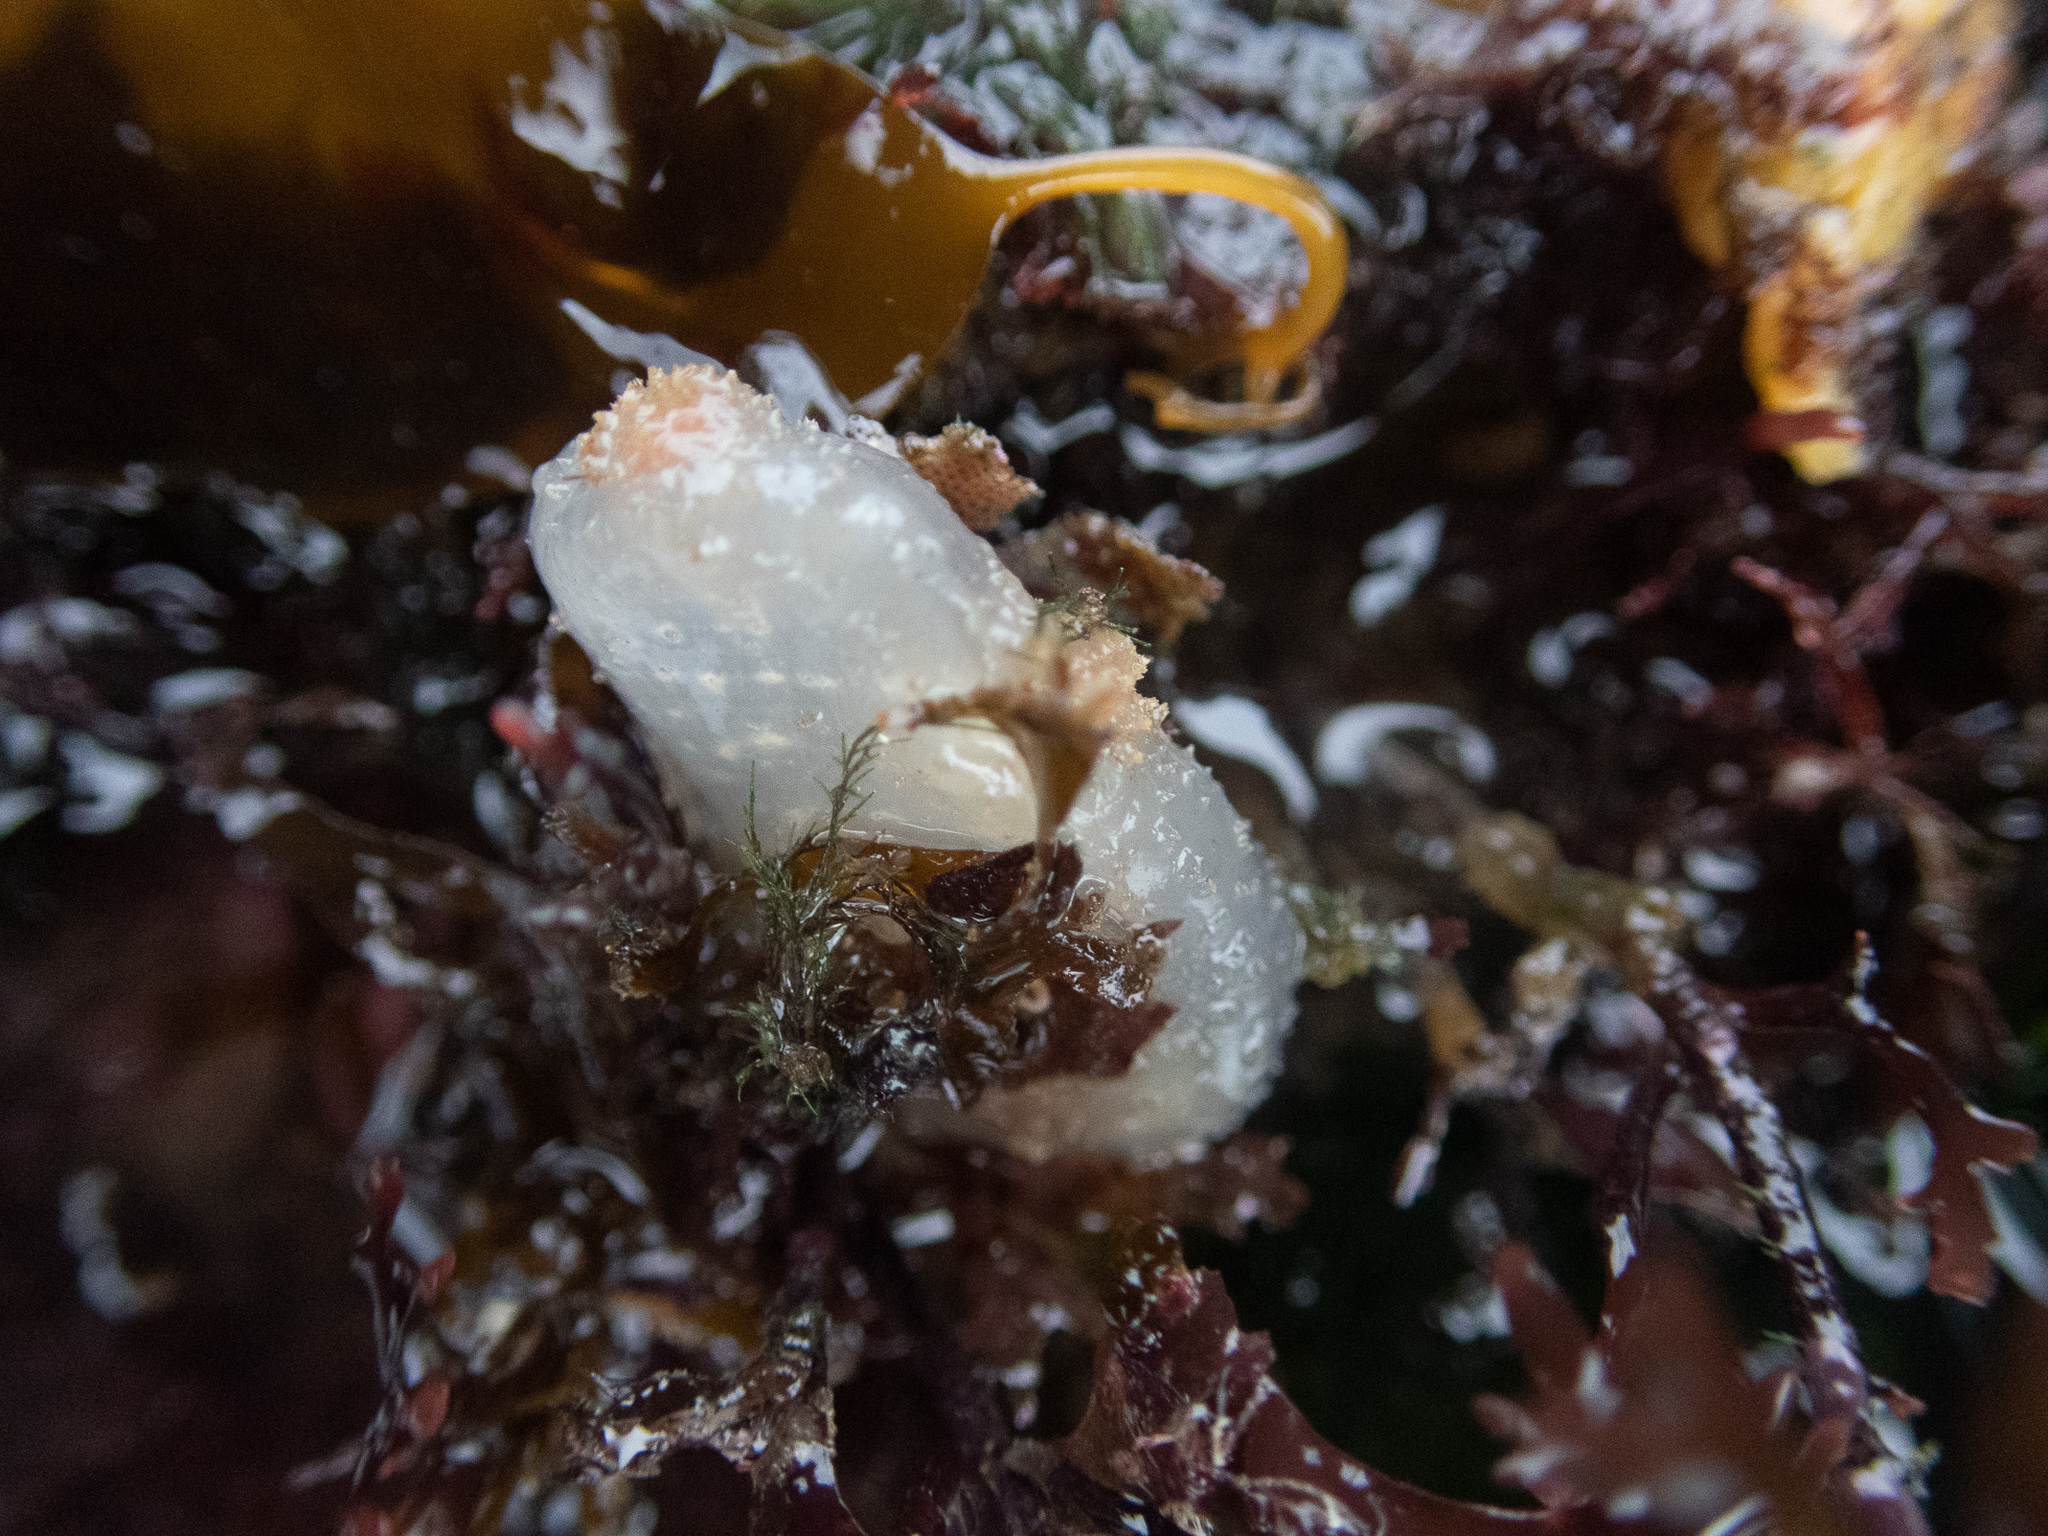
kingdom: Animalia
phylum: Chordata
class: Ascidiacea
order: Phlebobranchia
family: Ascidiidae
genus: Ascidiella
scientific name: Ascidiella aspersa
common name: Dirty sea-squirt
